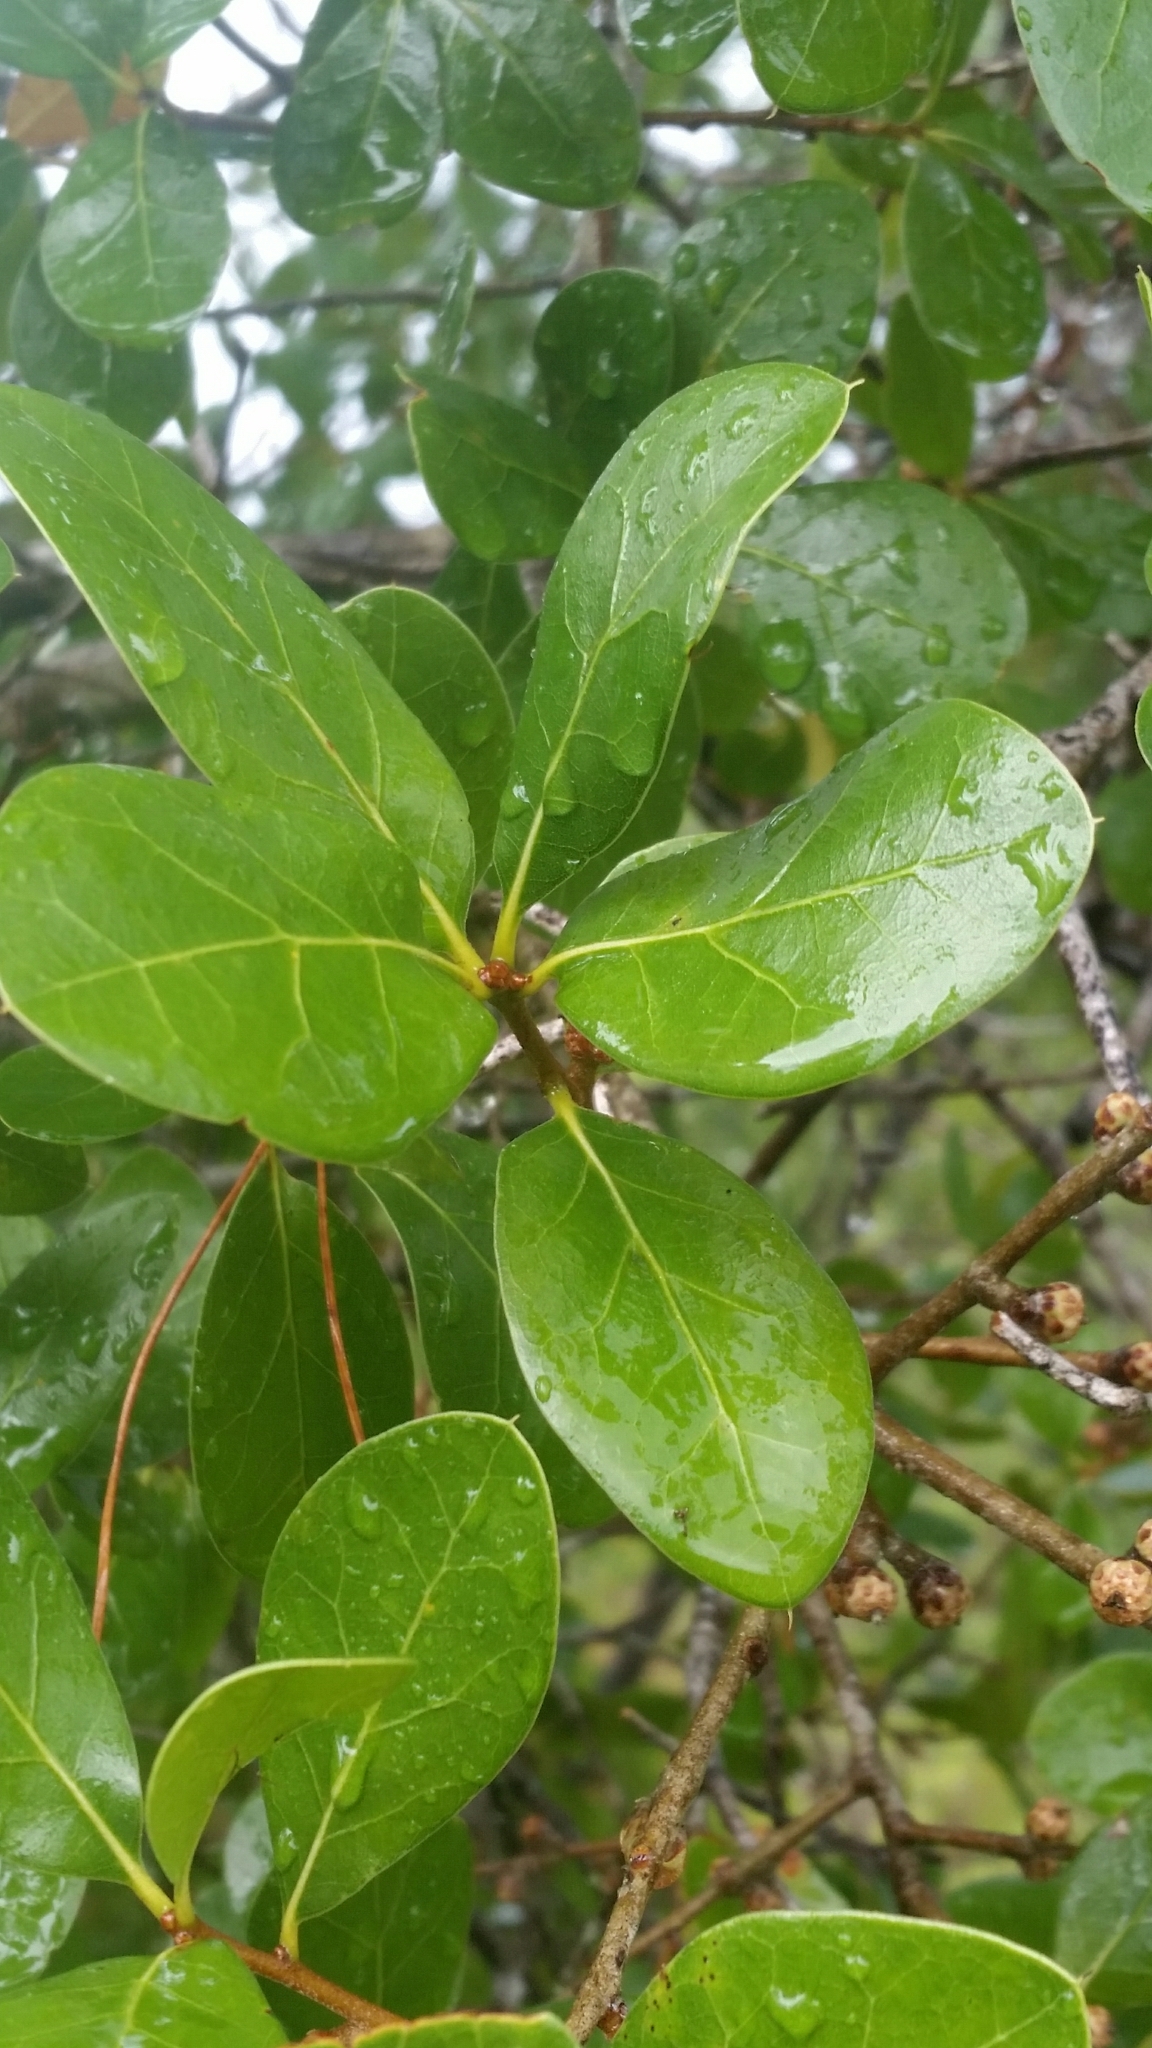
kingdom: Plantae
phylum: Tracheophyta
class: Magnoliopsida
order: Fagales
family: Fagaceae
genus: Quercus
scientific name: Quercus myrtifolia
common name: Myrtle oak
